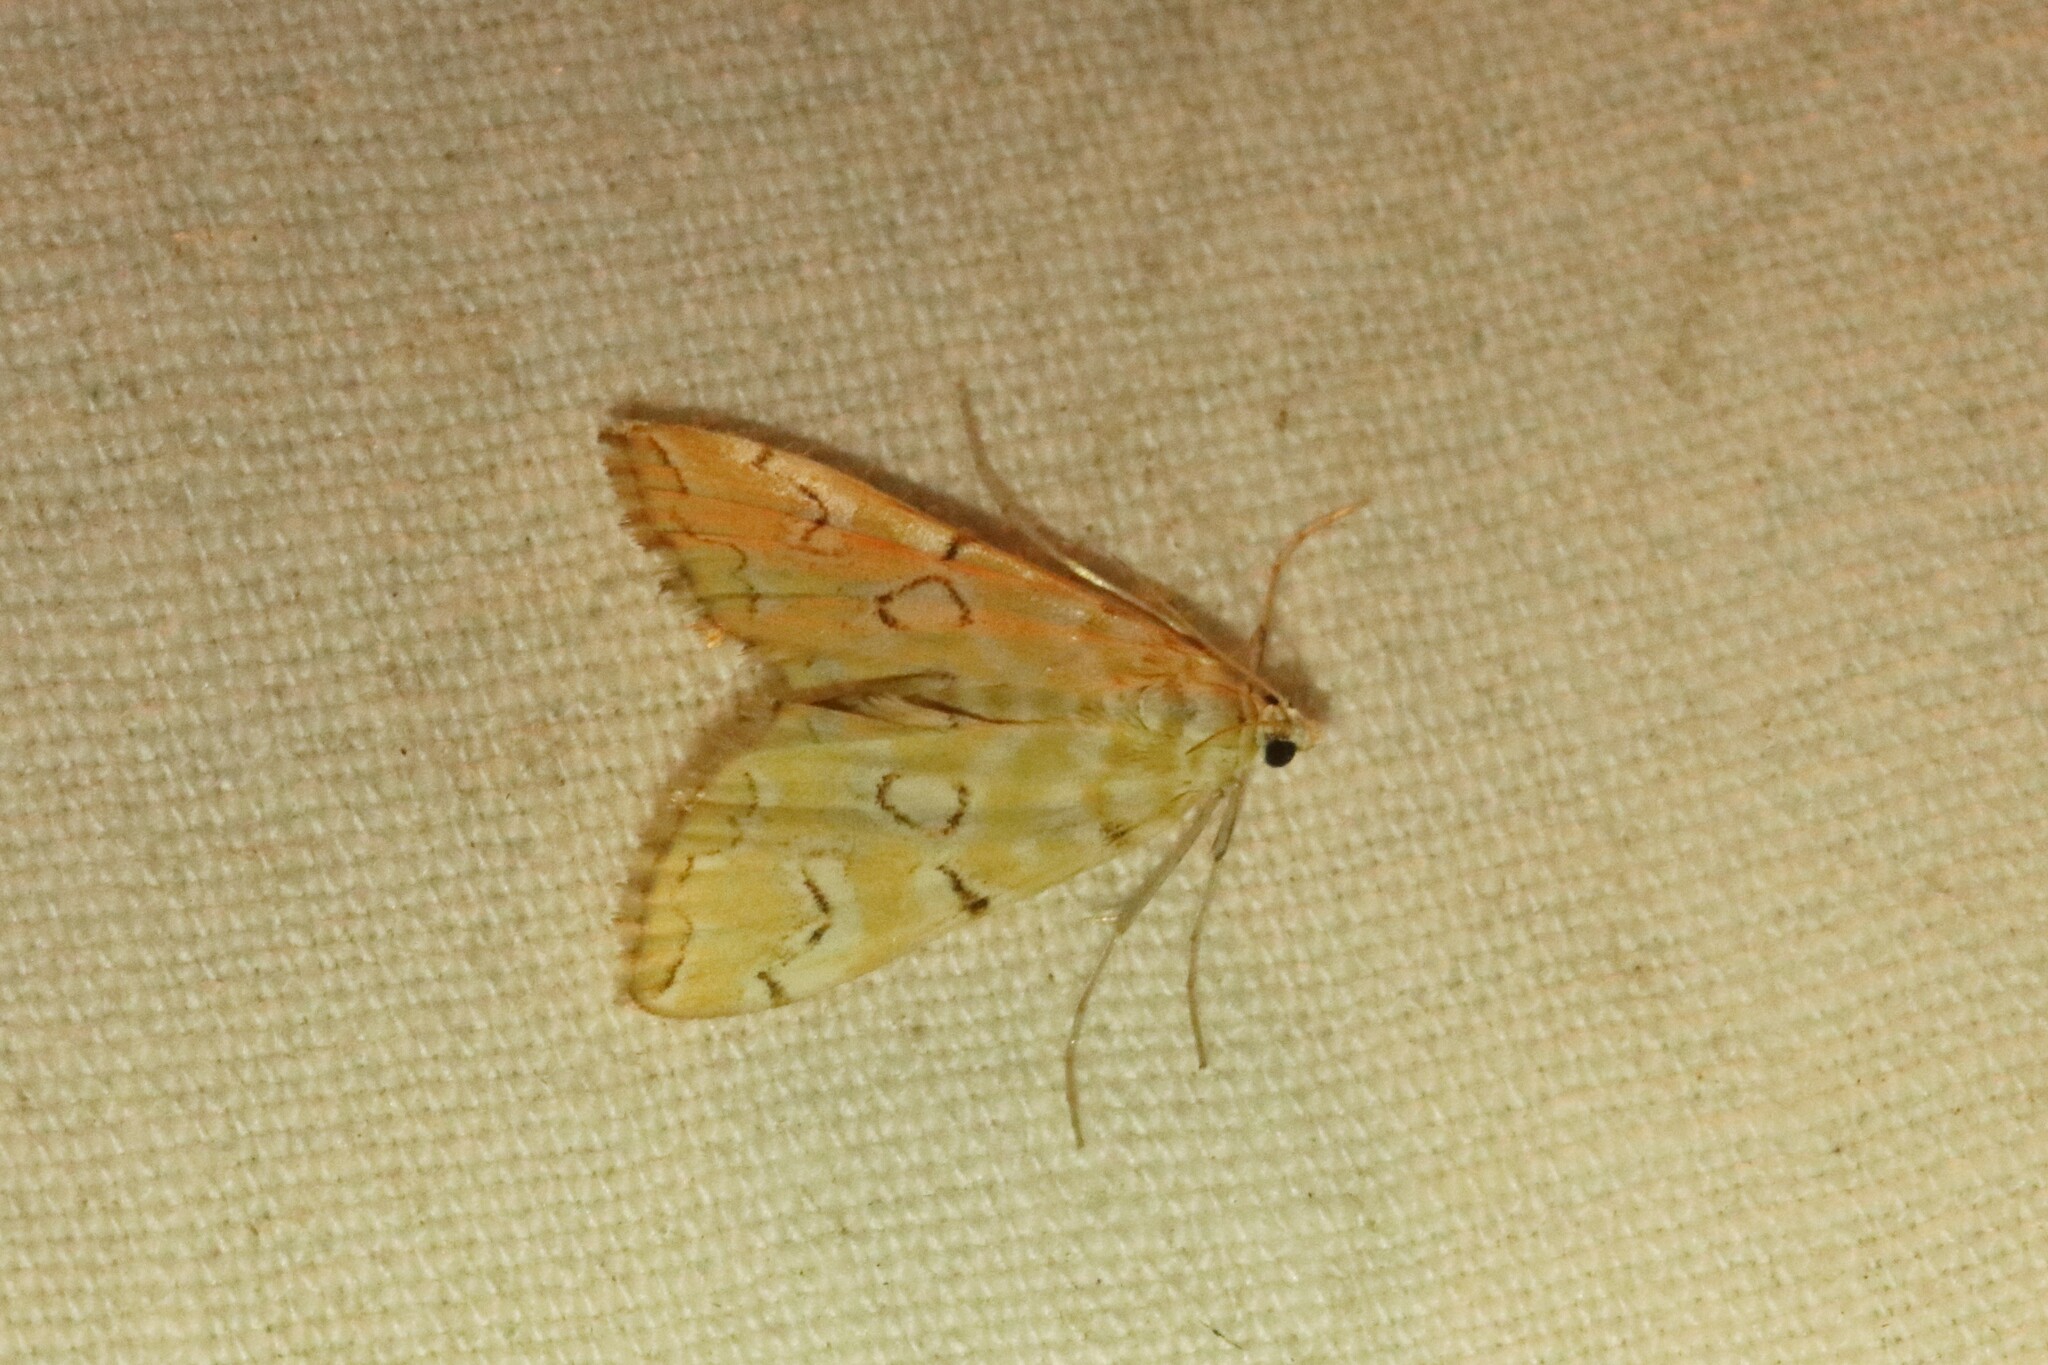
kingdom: Animalia
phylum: Arthropoda
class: Insecta
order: Lepidoptera
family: Crambidae
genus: Elophila
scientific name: Elophila icciusalis
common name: Pondside pyralid moth
